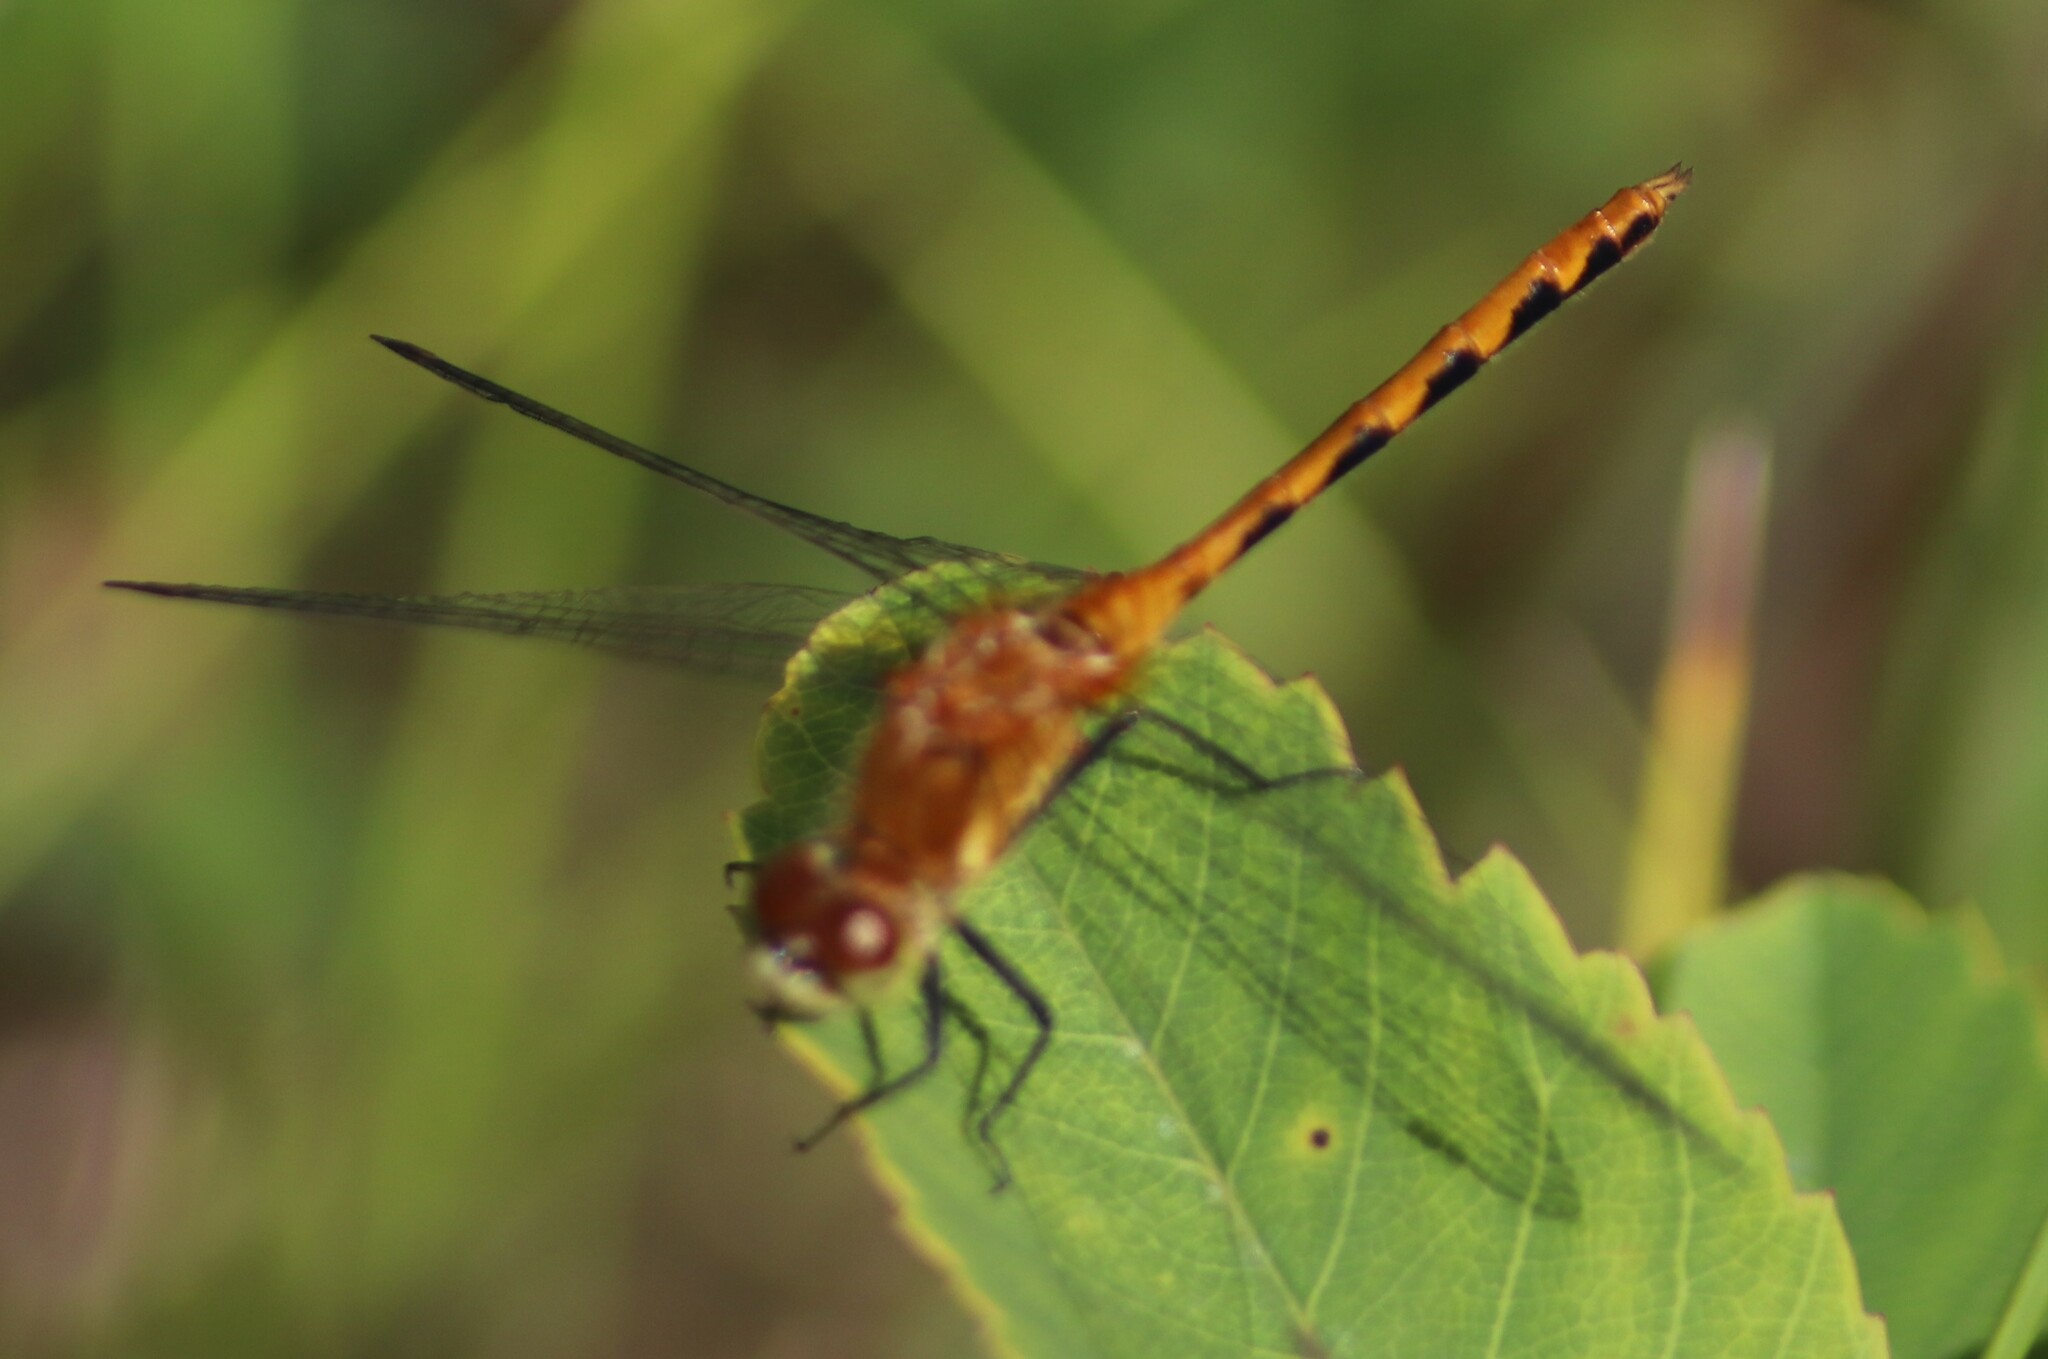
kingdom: Animalia
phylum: Arthropoda
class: Insecta
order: Odonata
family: Libellulidae
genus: Sympetrum
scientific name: Sympetrum obtrusum
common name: White-faced meadowhawk
